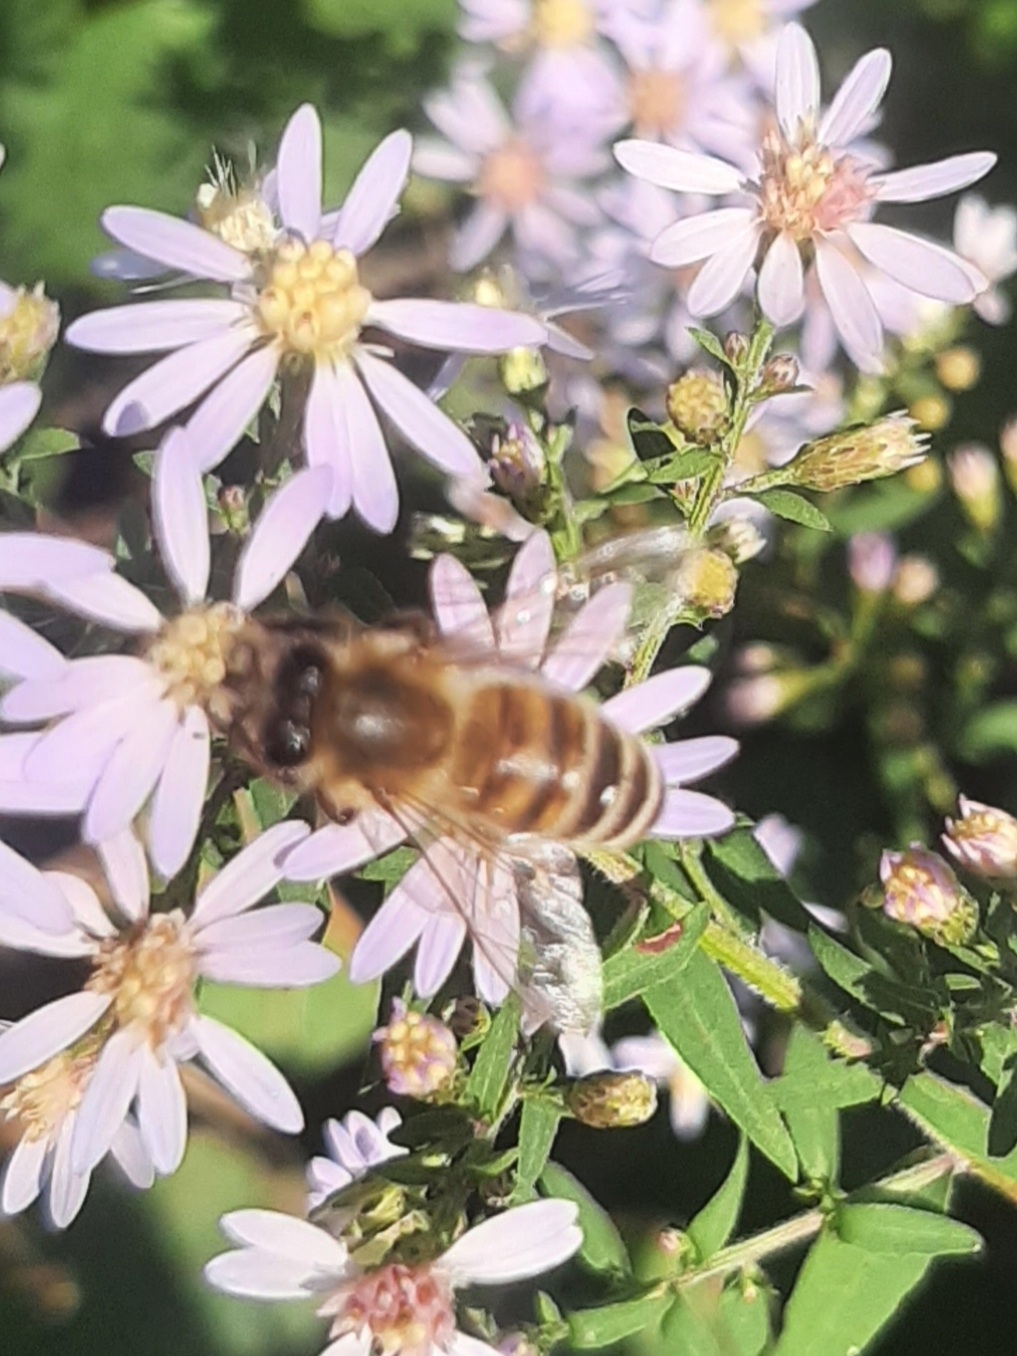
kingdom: Animalia
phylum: Arthropoda
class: Insecta
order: Hymenoptera
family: Apidae
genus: Apis
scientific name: Apis mellifera
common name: Honey bee
